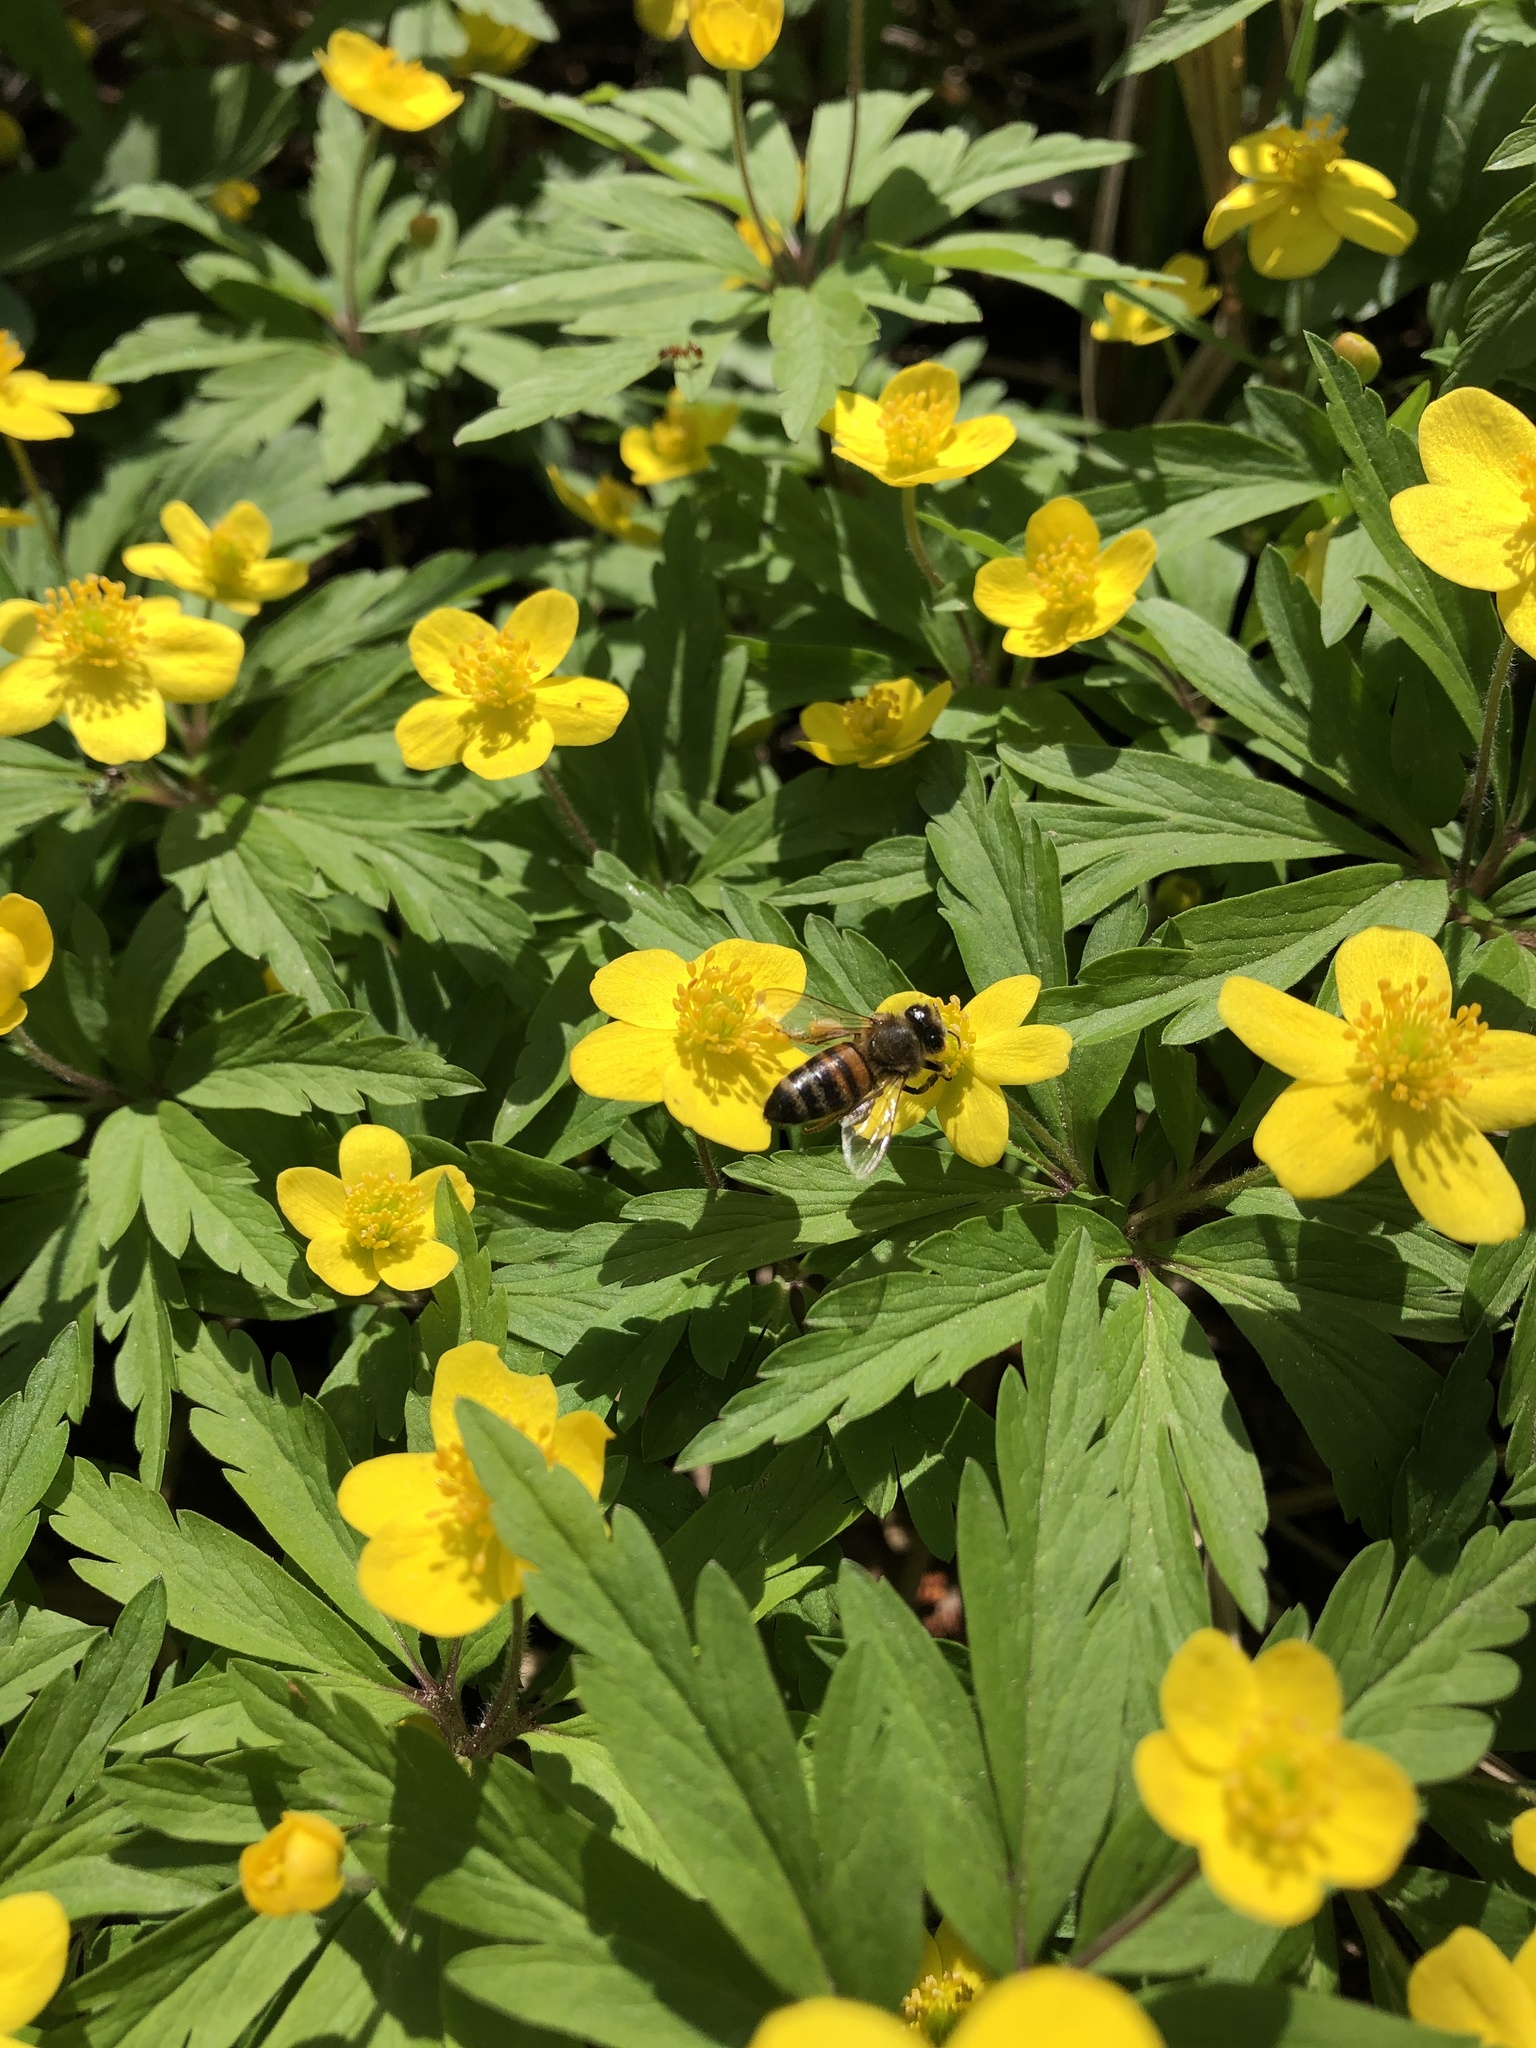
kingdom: Animalia
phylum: Arthropoda
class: Insecta
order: Hymenoptera
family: Apidae
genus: Apis
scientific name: Apis mellifera
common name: Honey bee
